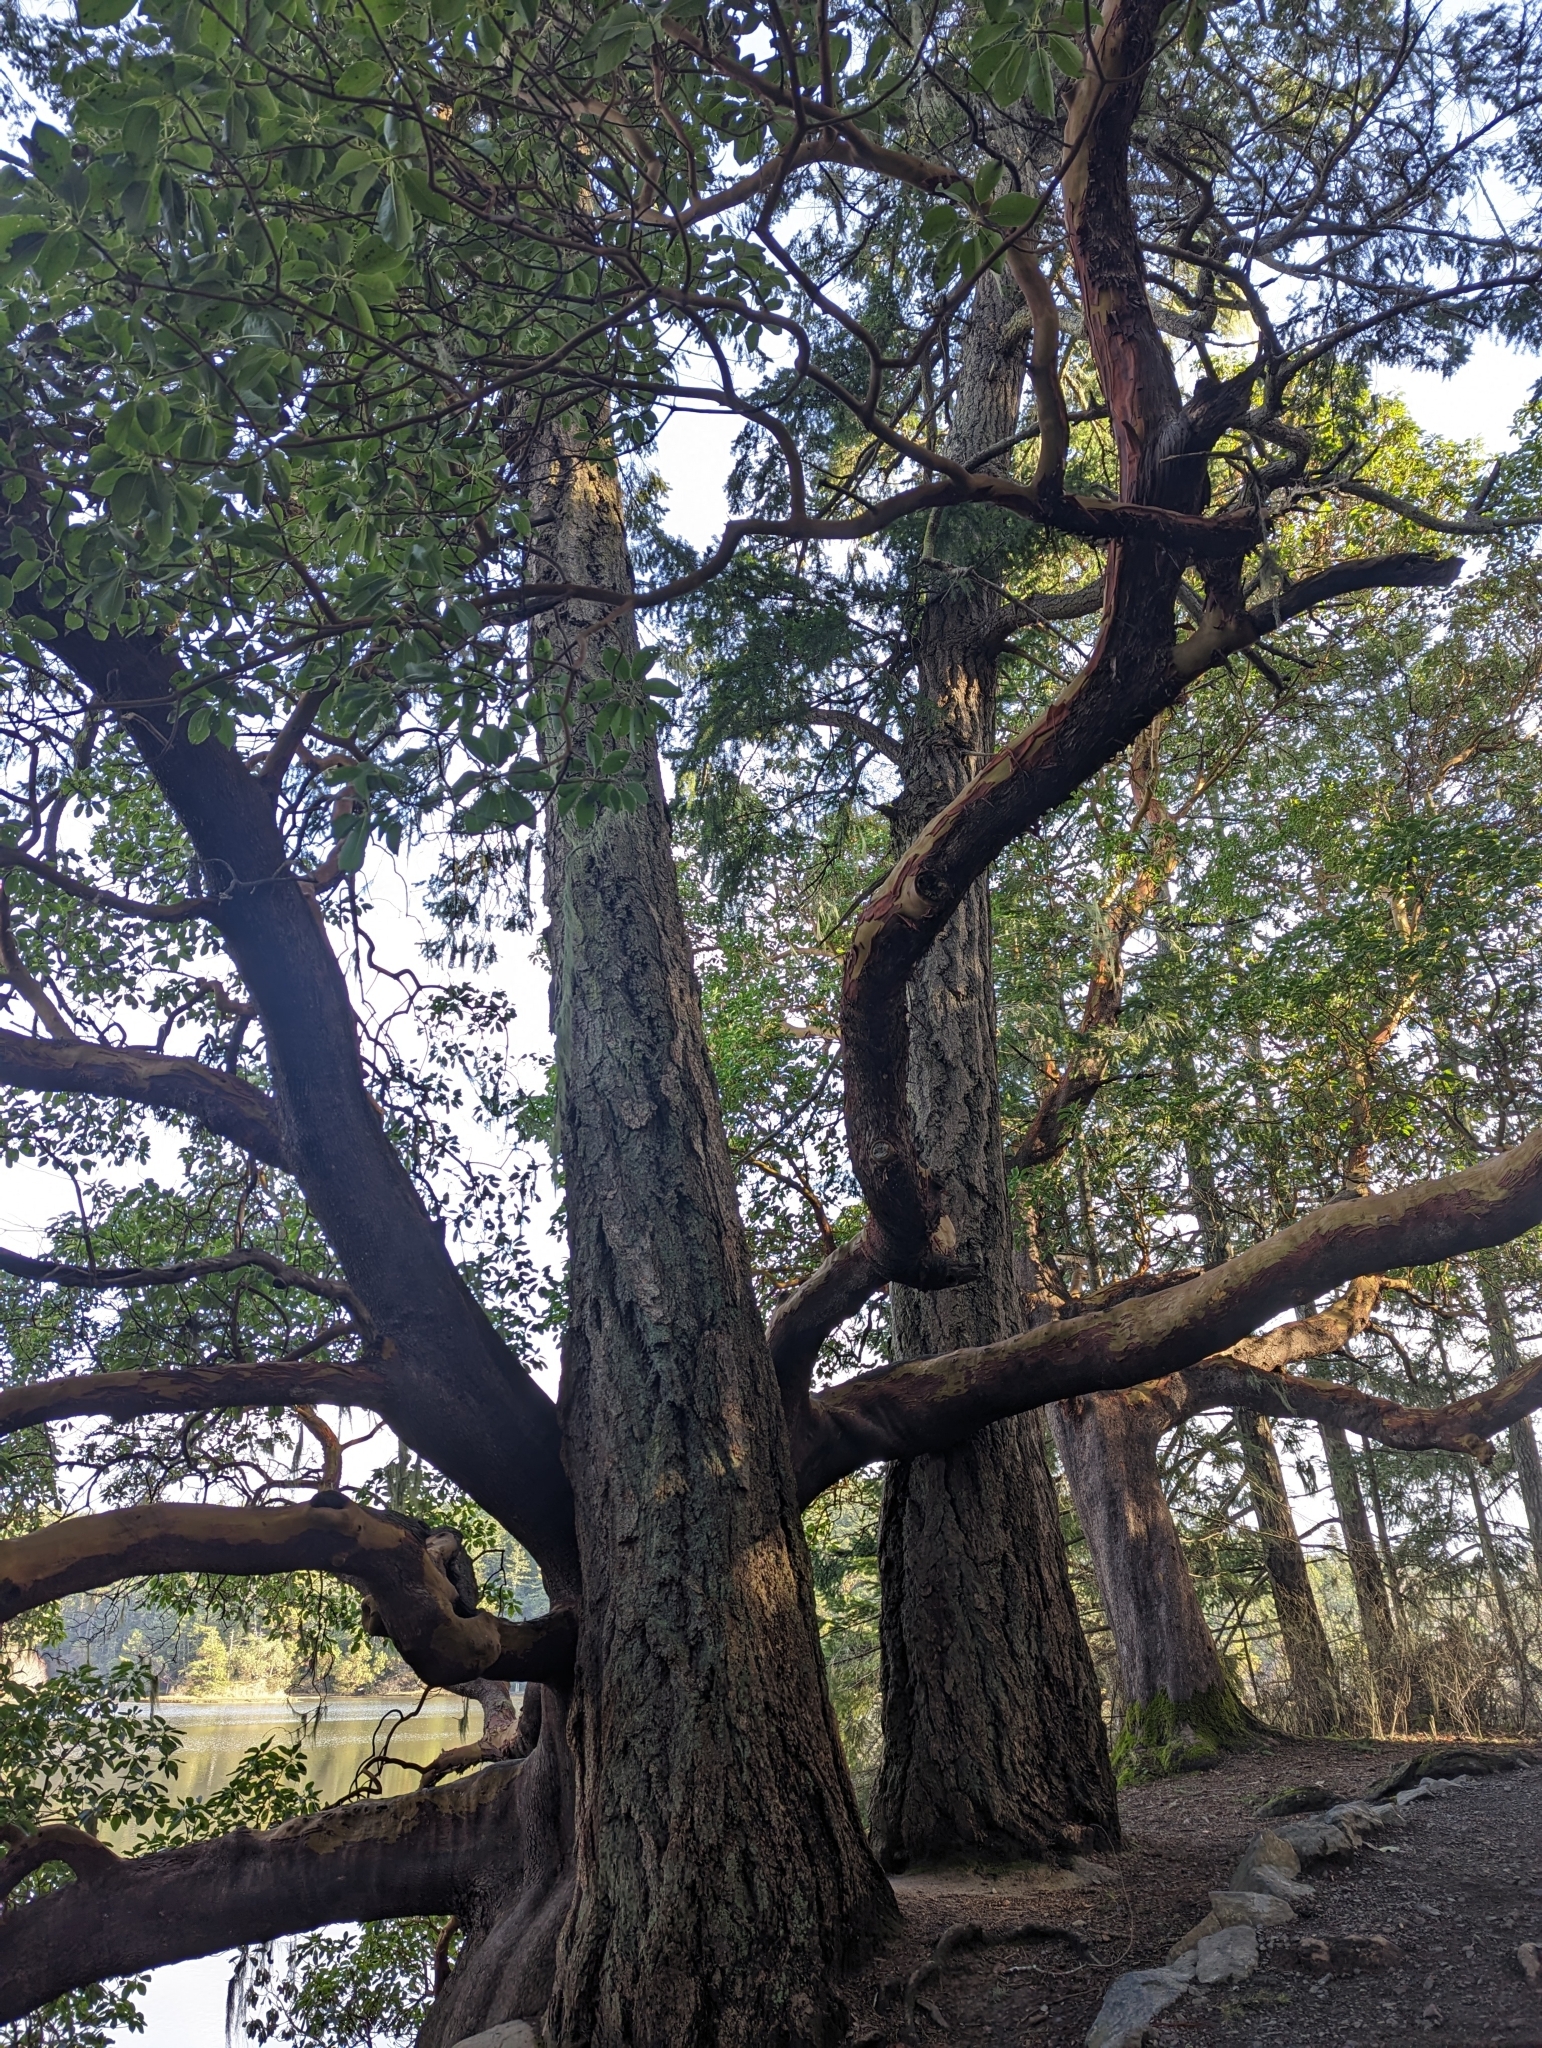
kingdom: Plantae
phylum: Tracheophyta
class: Pinopsida
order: Pinales
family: Pinaceae
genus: Pseudotsuga
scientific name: Pseudotsuga menziesii
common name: Douglas fir
